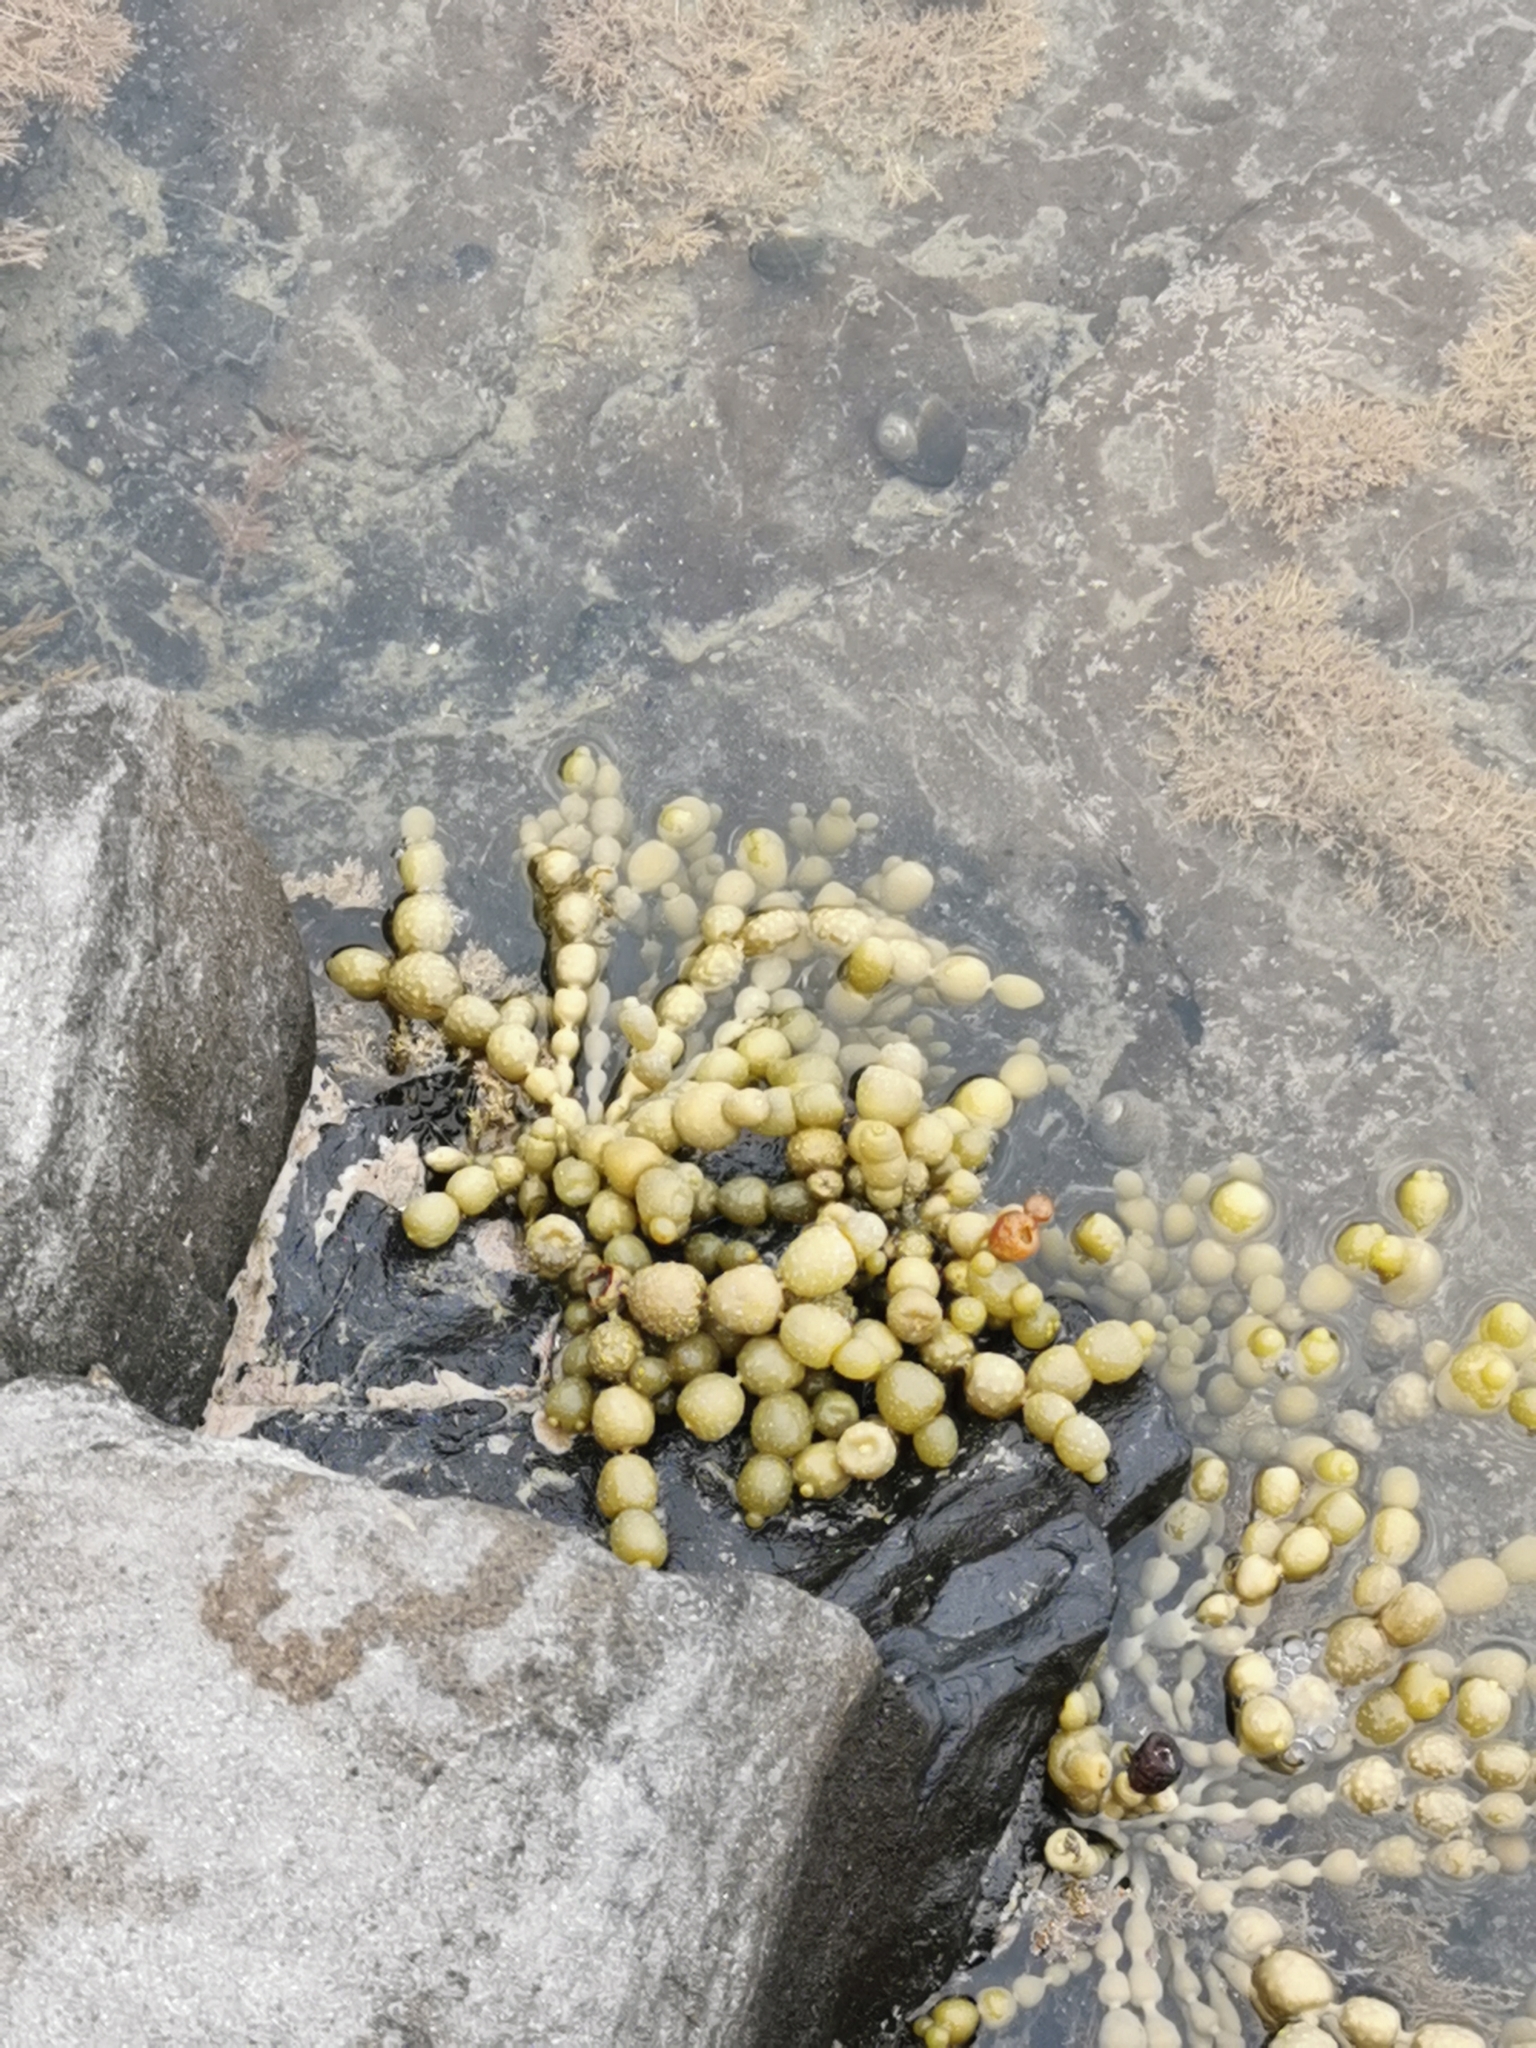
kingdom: Chromista
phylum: Ochrophyta
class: Phaeophyceae
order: Fucales
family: Hormosiraceae
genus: Hormosira
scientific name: Hormosira banksii
